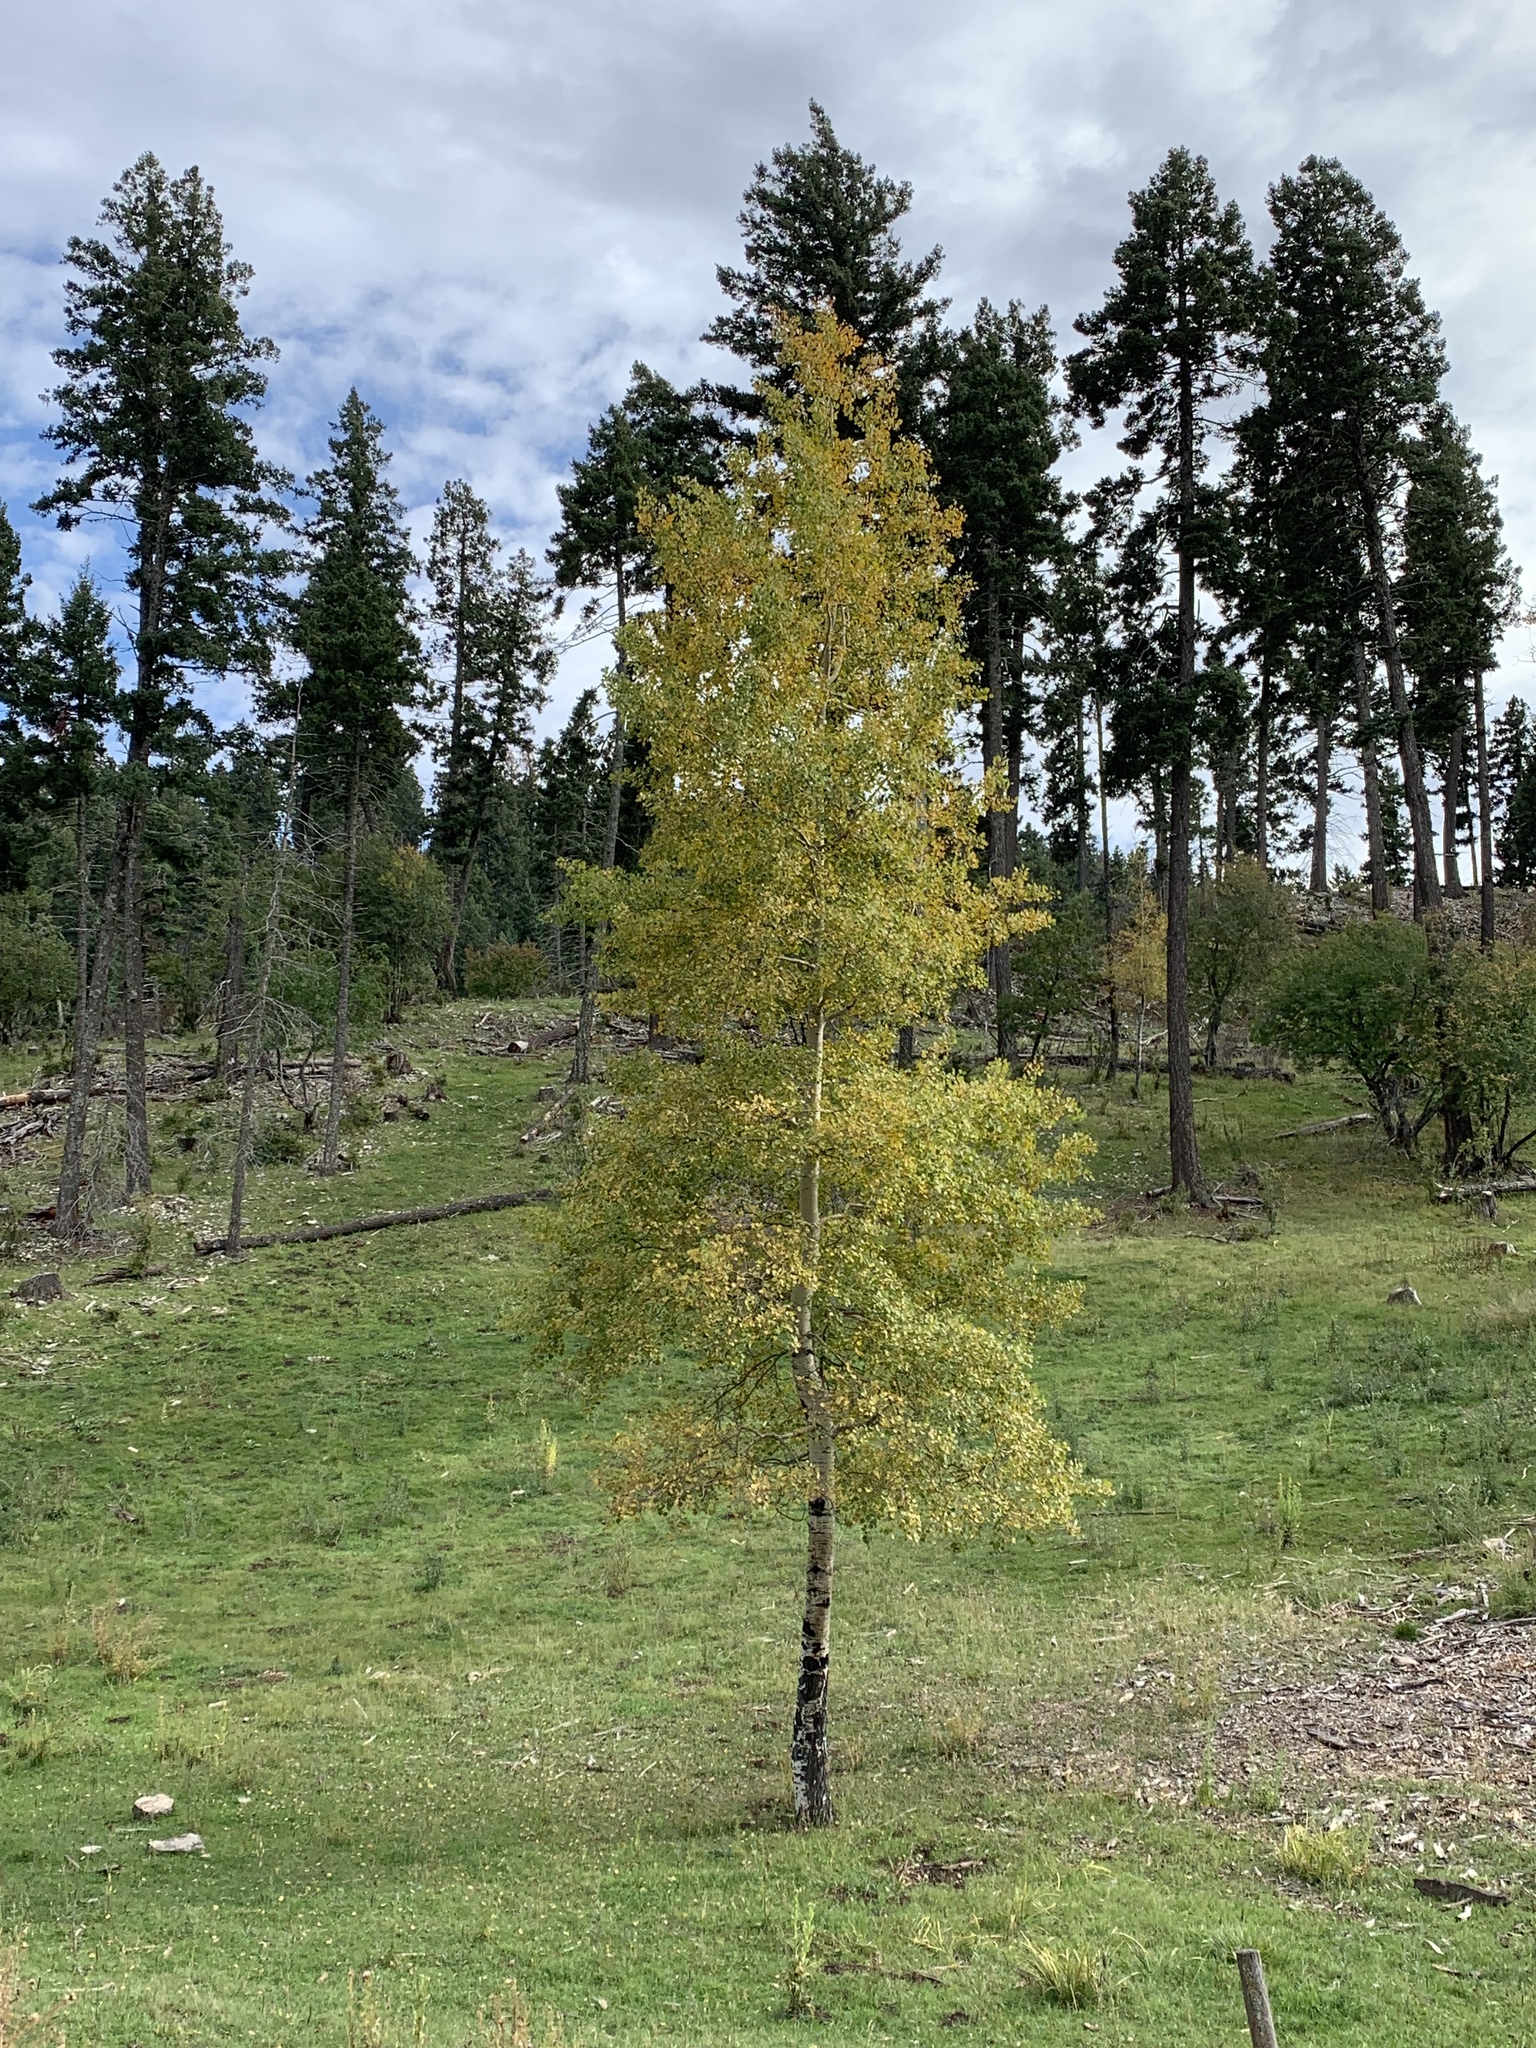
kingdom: Plantae
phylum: Tracheophyta
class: Magnoliopsida
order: Malpighiales
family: Salicaceae
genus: Populus
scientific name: Populus tremuloides
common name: Quaking aspen
